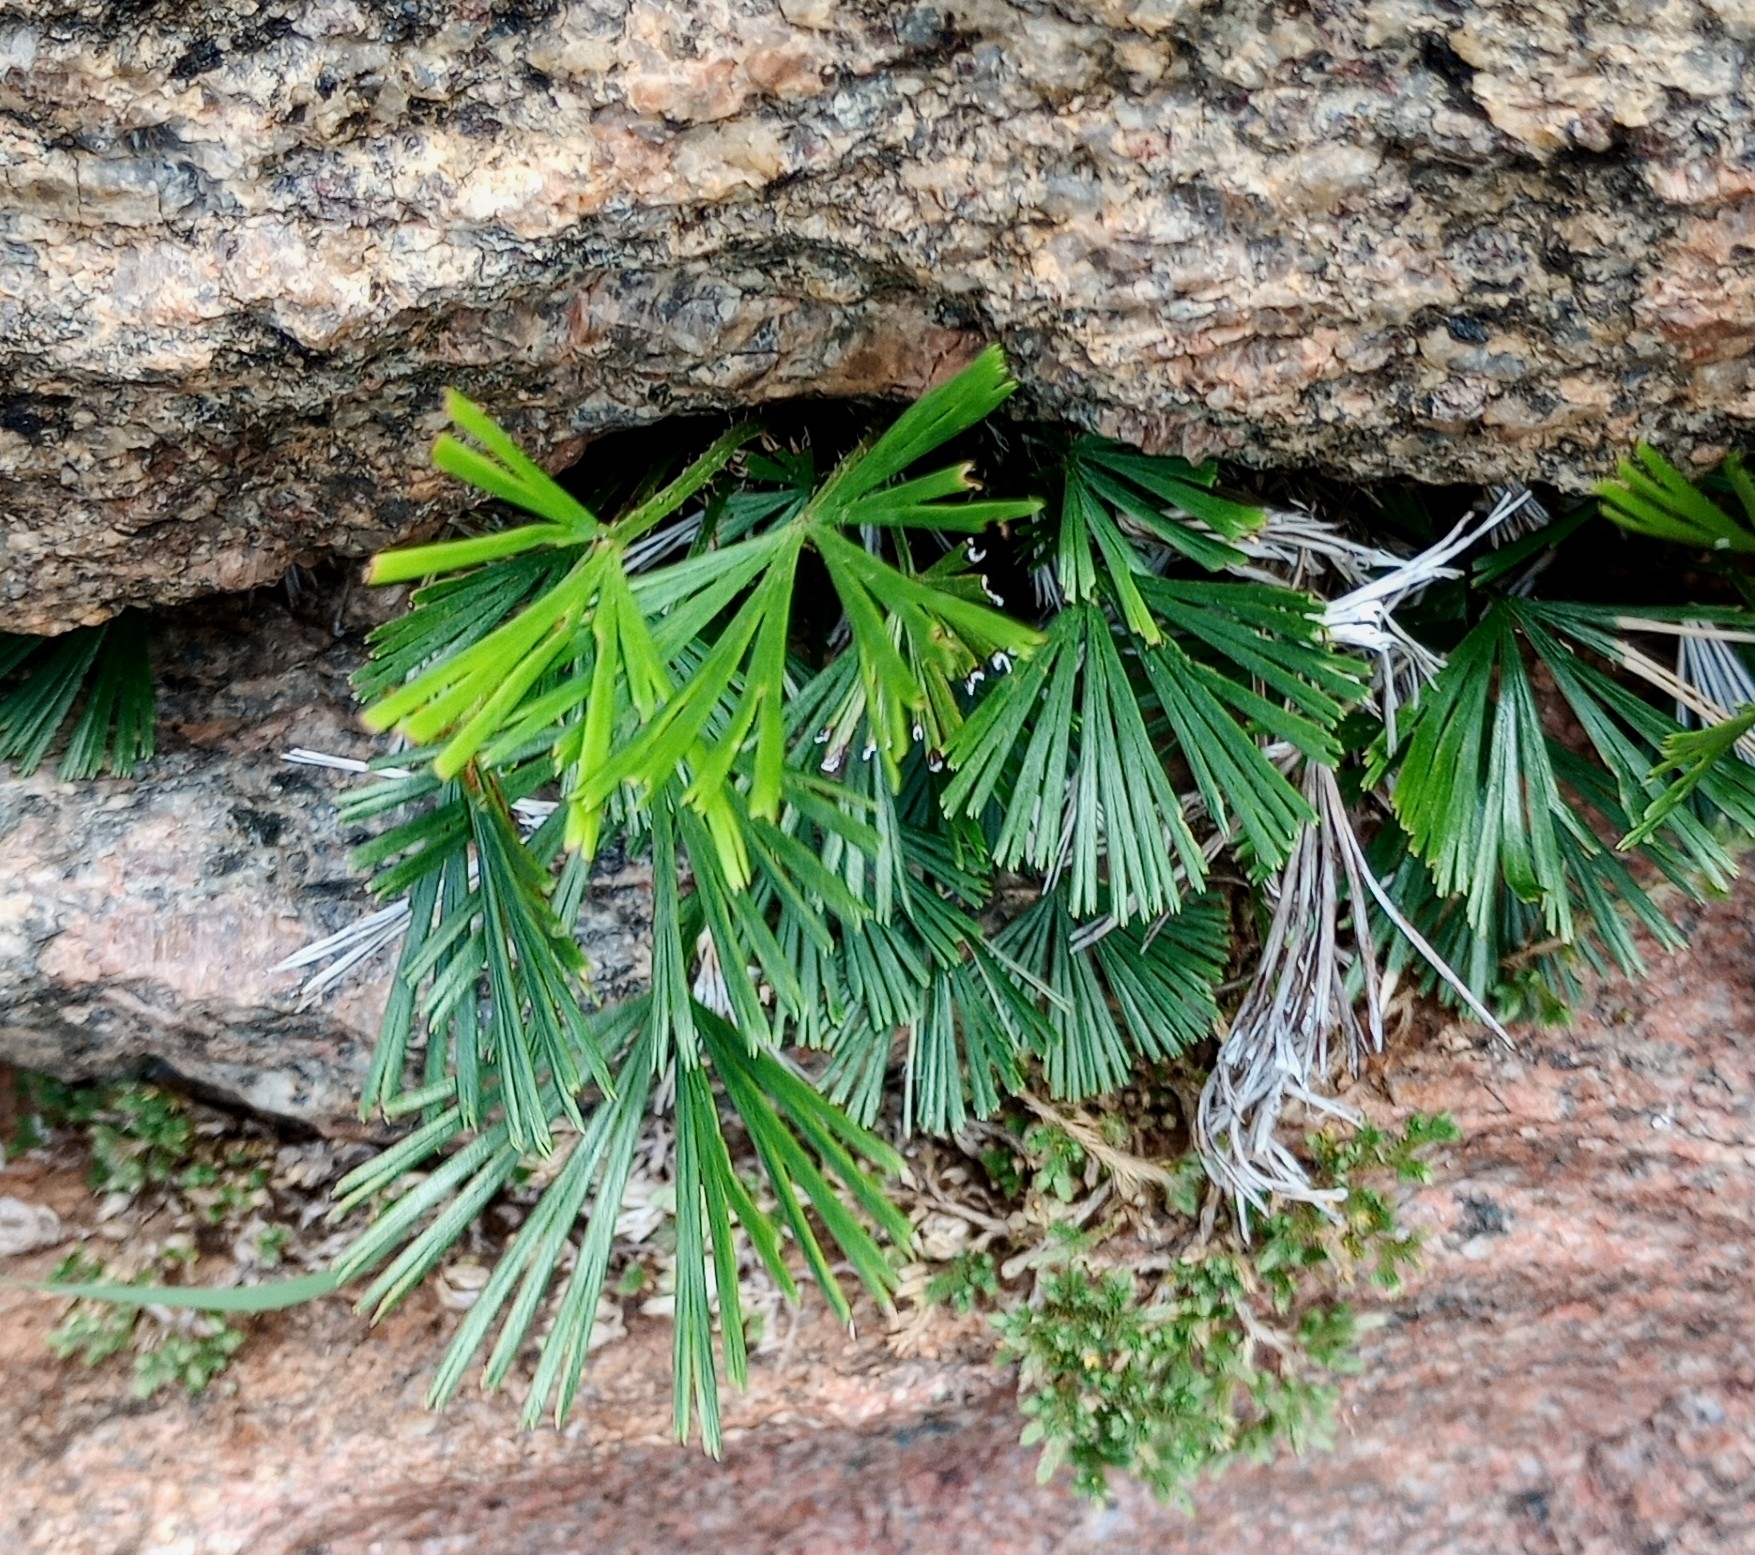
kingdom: Plantae
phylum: Tracheophyta
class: Polypodiopsida
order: Polypodiales
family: Pteridaceae
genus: Actiniopteris
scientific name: Actiniopteris radiata
